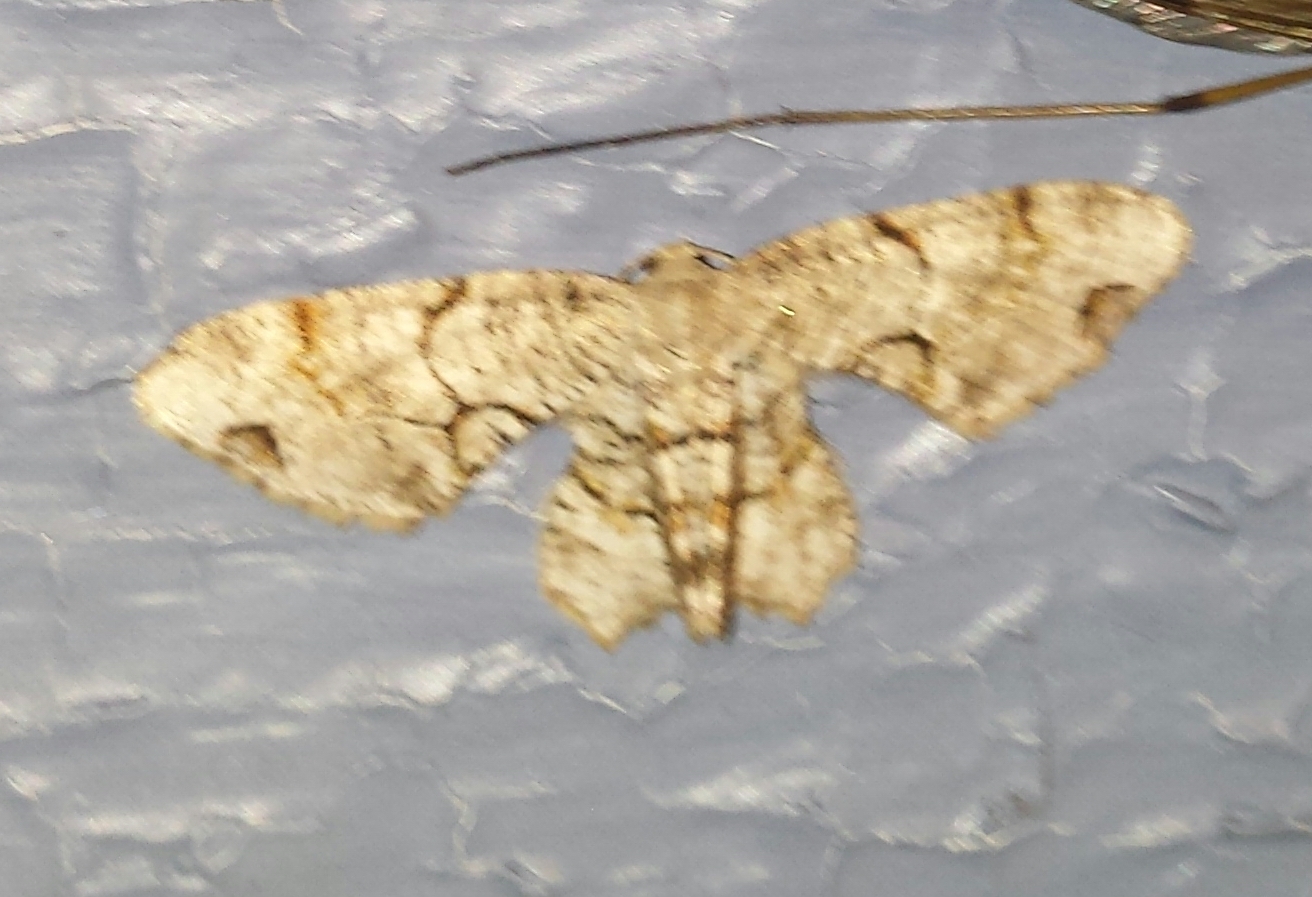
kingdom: Animalia
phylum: Arthropoda
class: Insecta
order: Lepidoptera
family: Uraniidae
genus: Epiplema
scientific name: Epiplema Callizzia amorata
